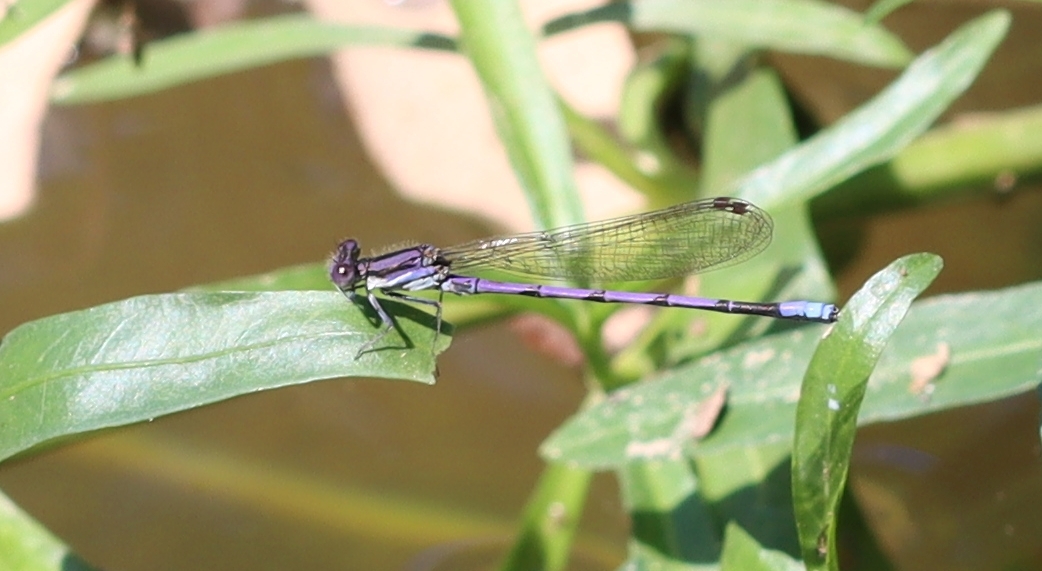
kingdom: Animalia
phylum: Arthropoda
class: Insecta
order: Odonata
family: Coenagrionidae
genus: Argia
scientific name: Argia fumipennis
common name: Variable dancer
